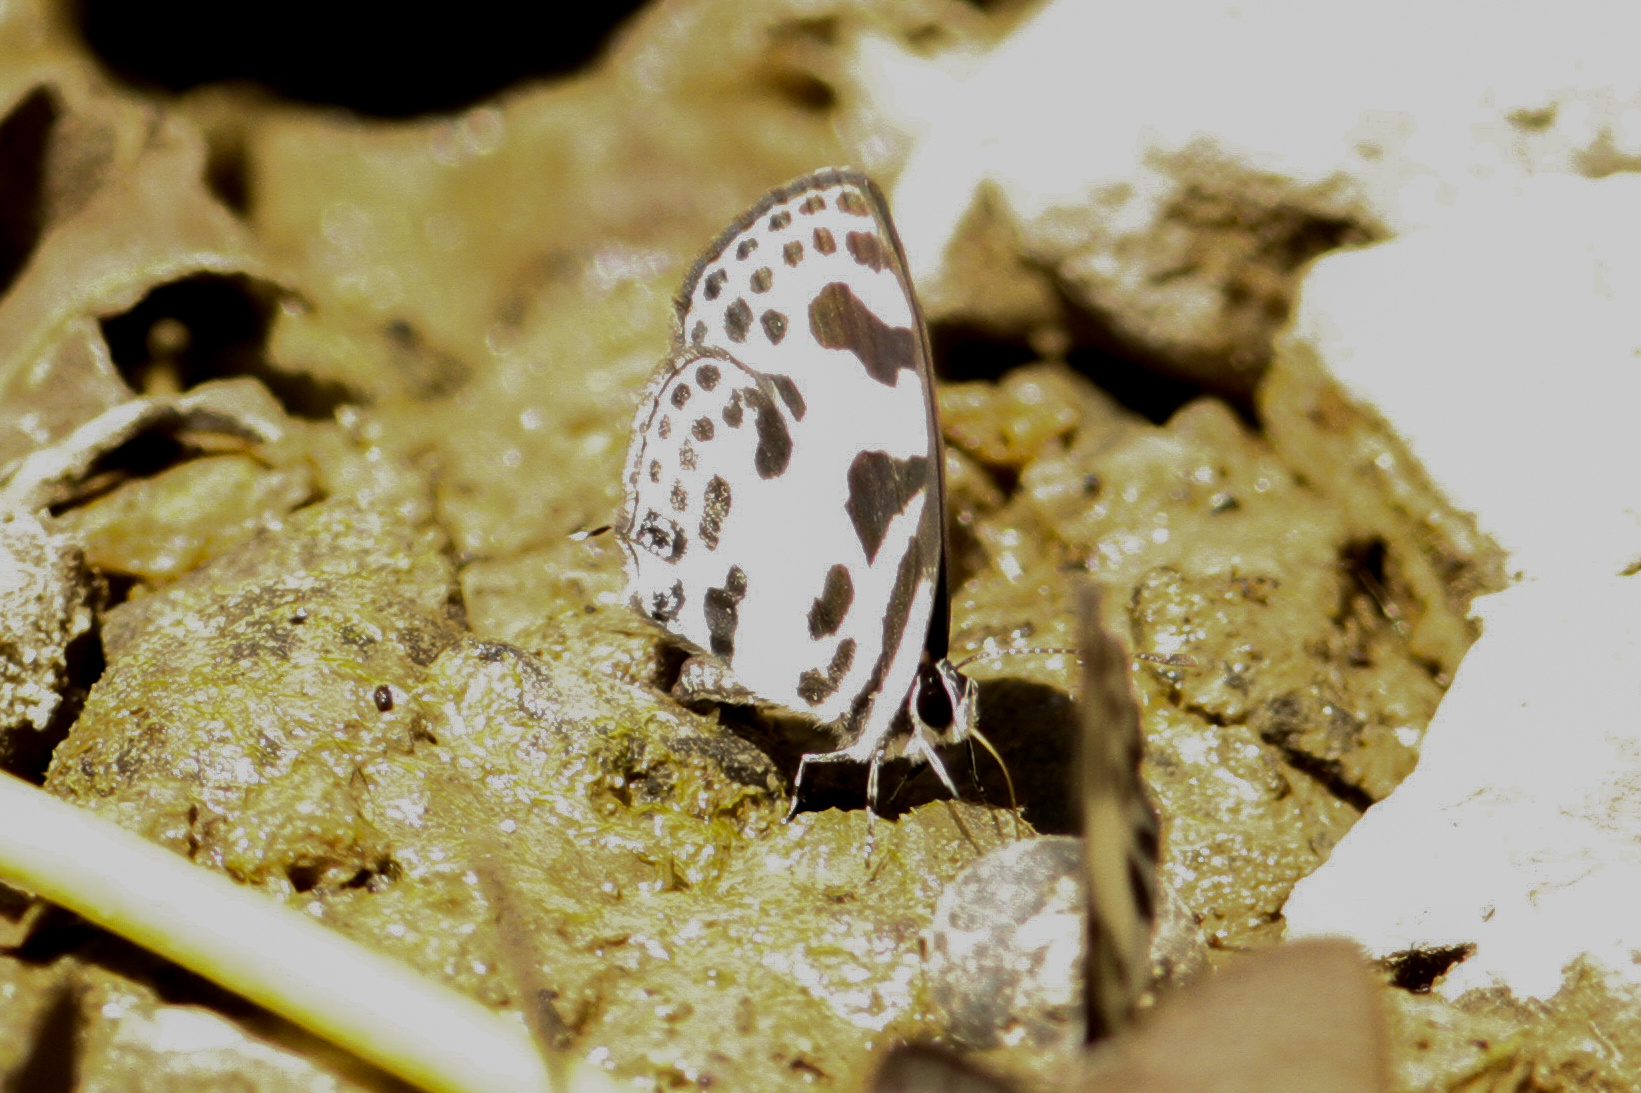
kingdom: Animalia
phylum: Arthropoda
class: Insecta
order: Lepidoptera
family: Lycaenidae
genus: Discolampa
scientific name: Discolampa ethion
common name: Banded blue pierrot
